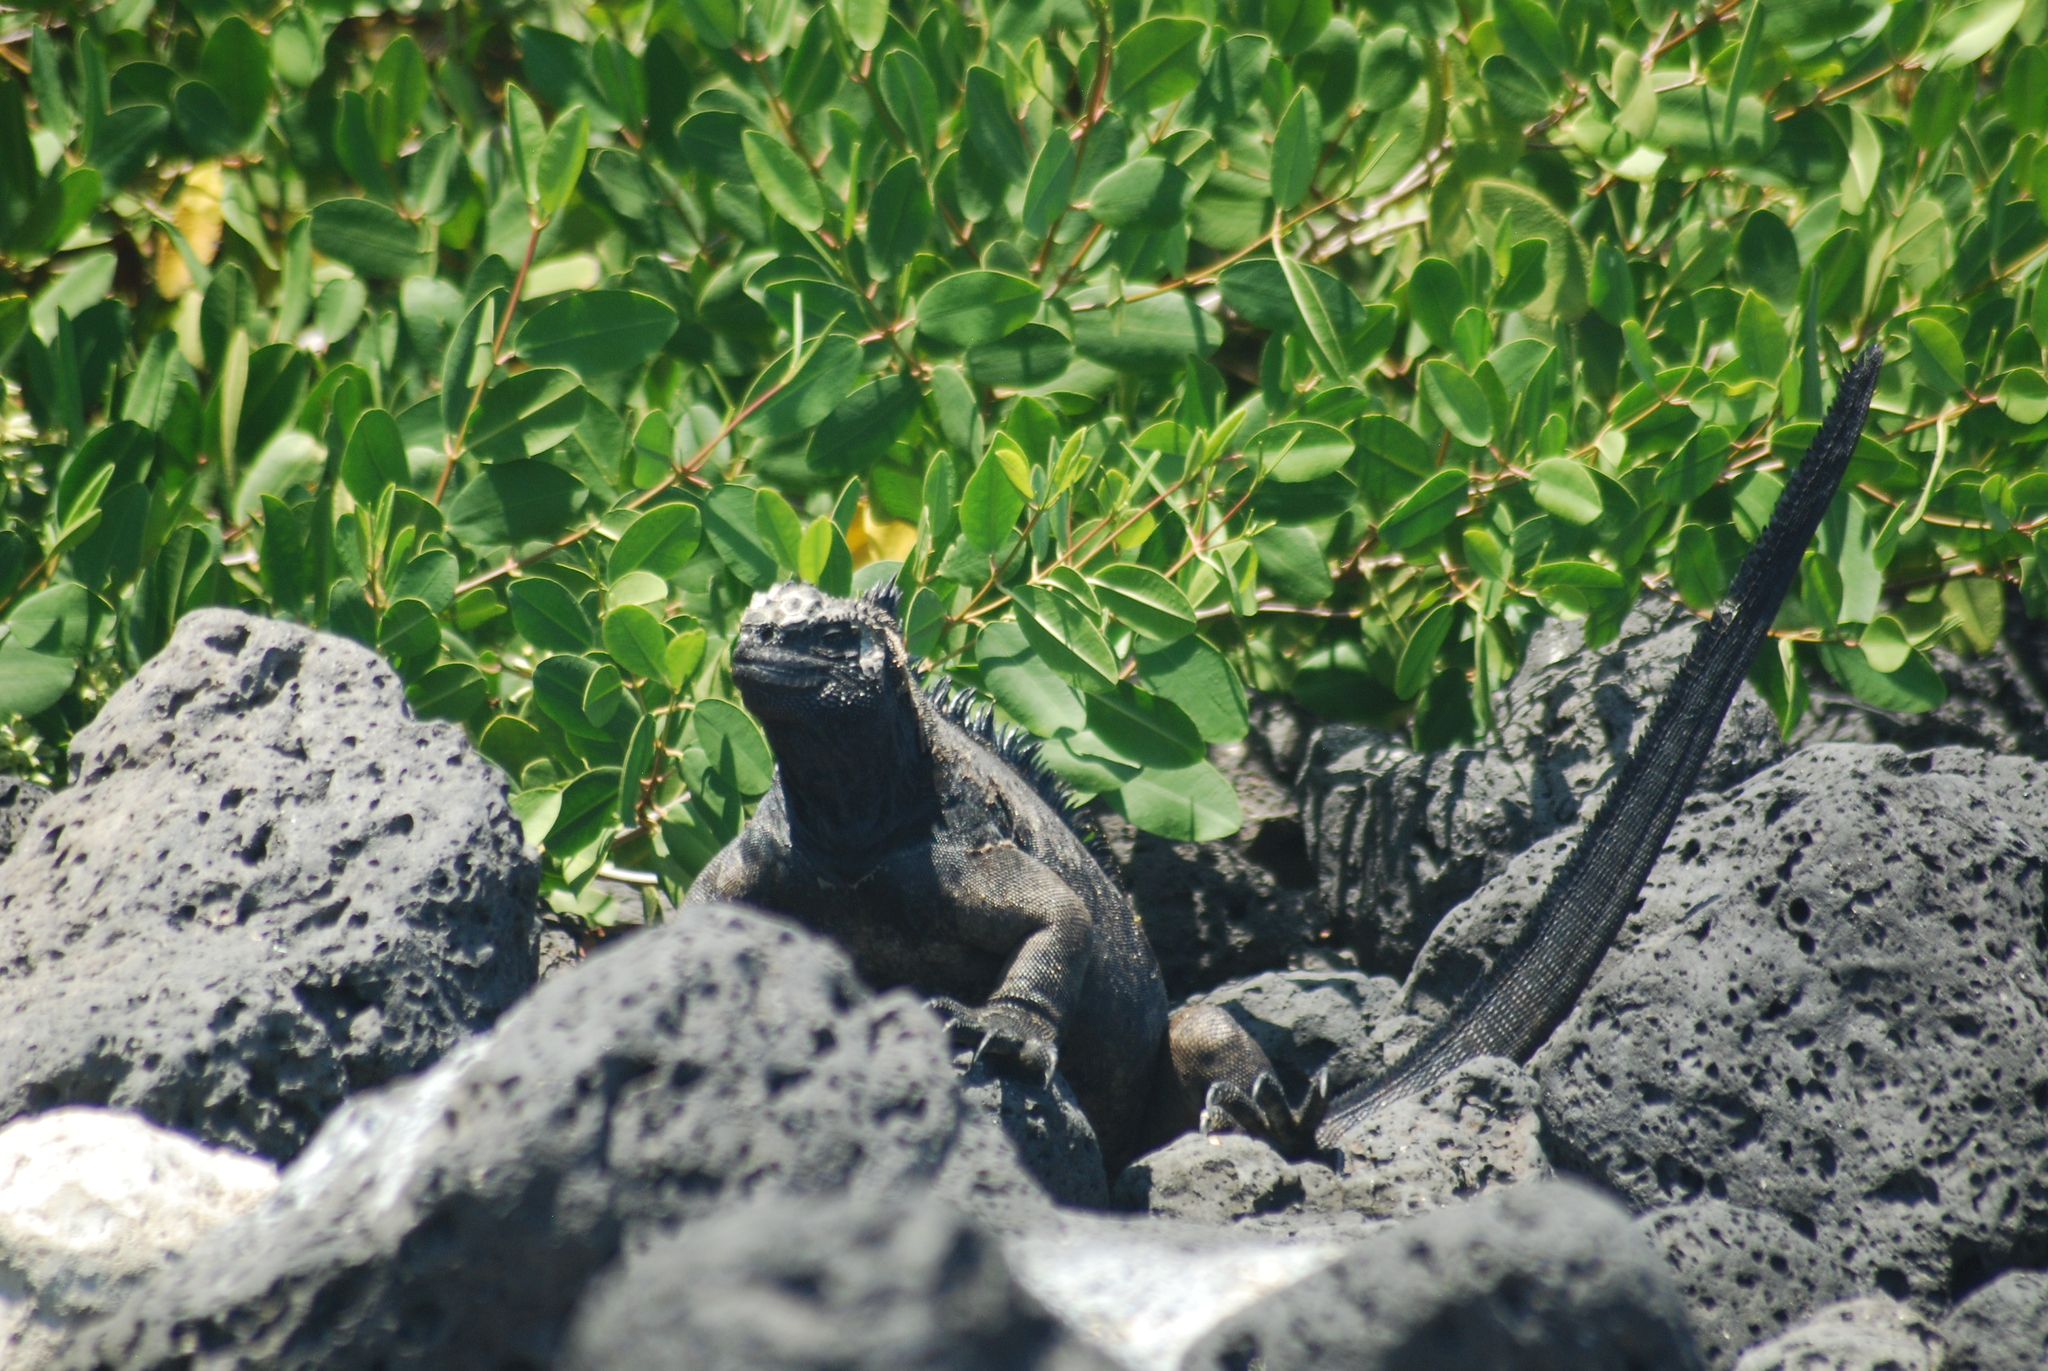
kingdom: Animalia
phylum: Chordata
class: Squamata
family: Iguanidae
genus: Amblyrhynchus
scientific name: Amblyrhynchus cristatus
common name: Marine iguana
